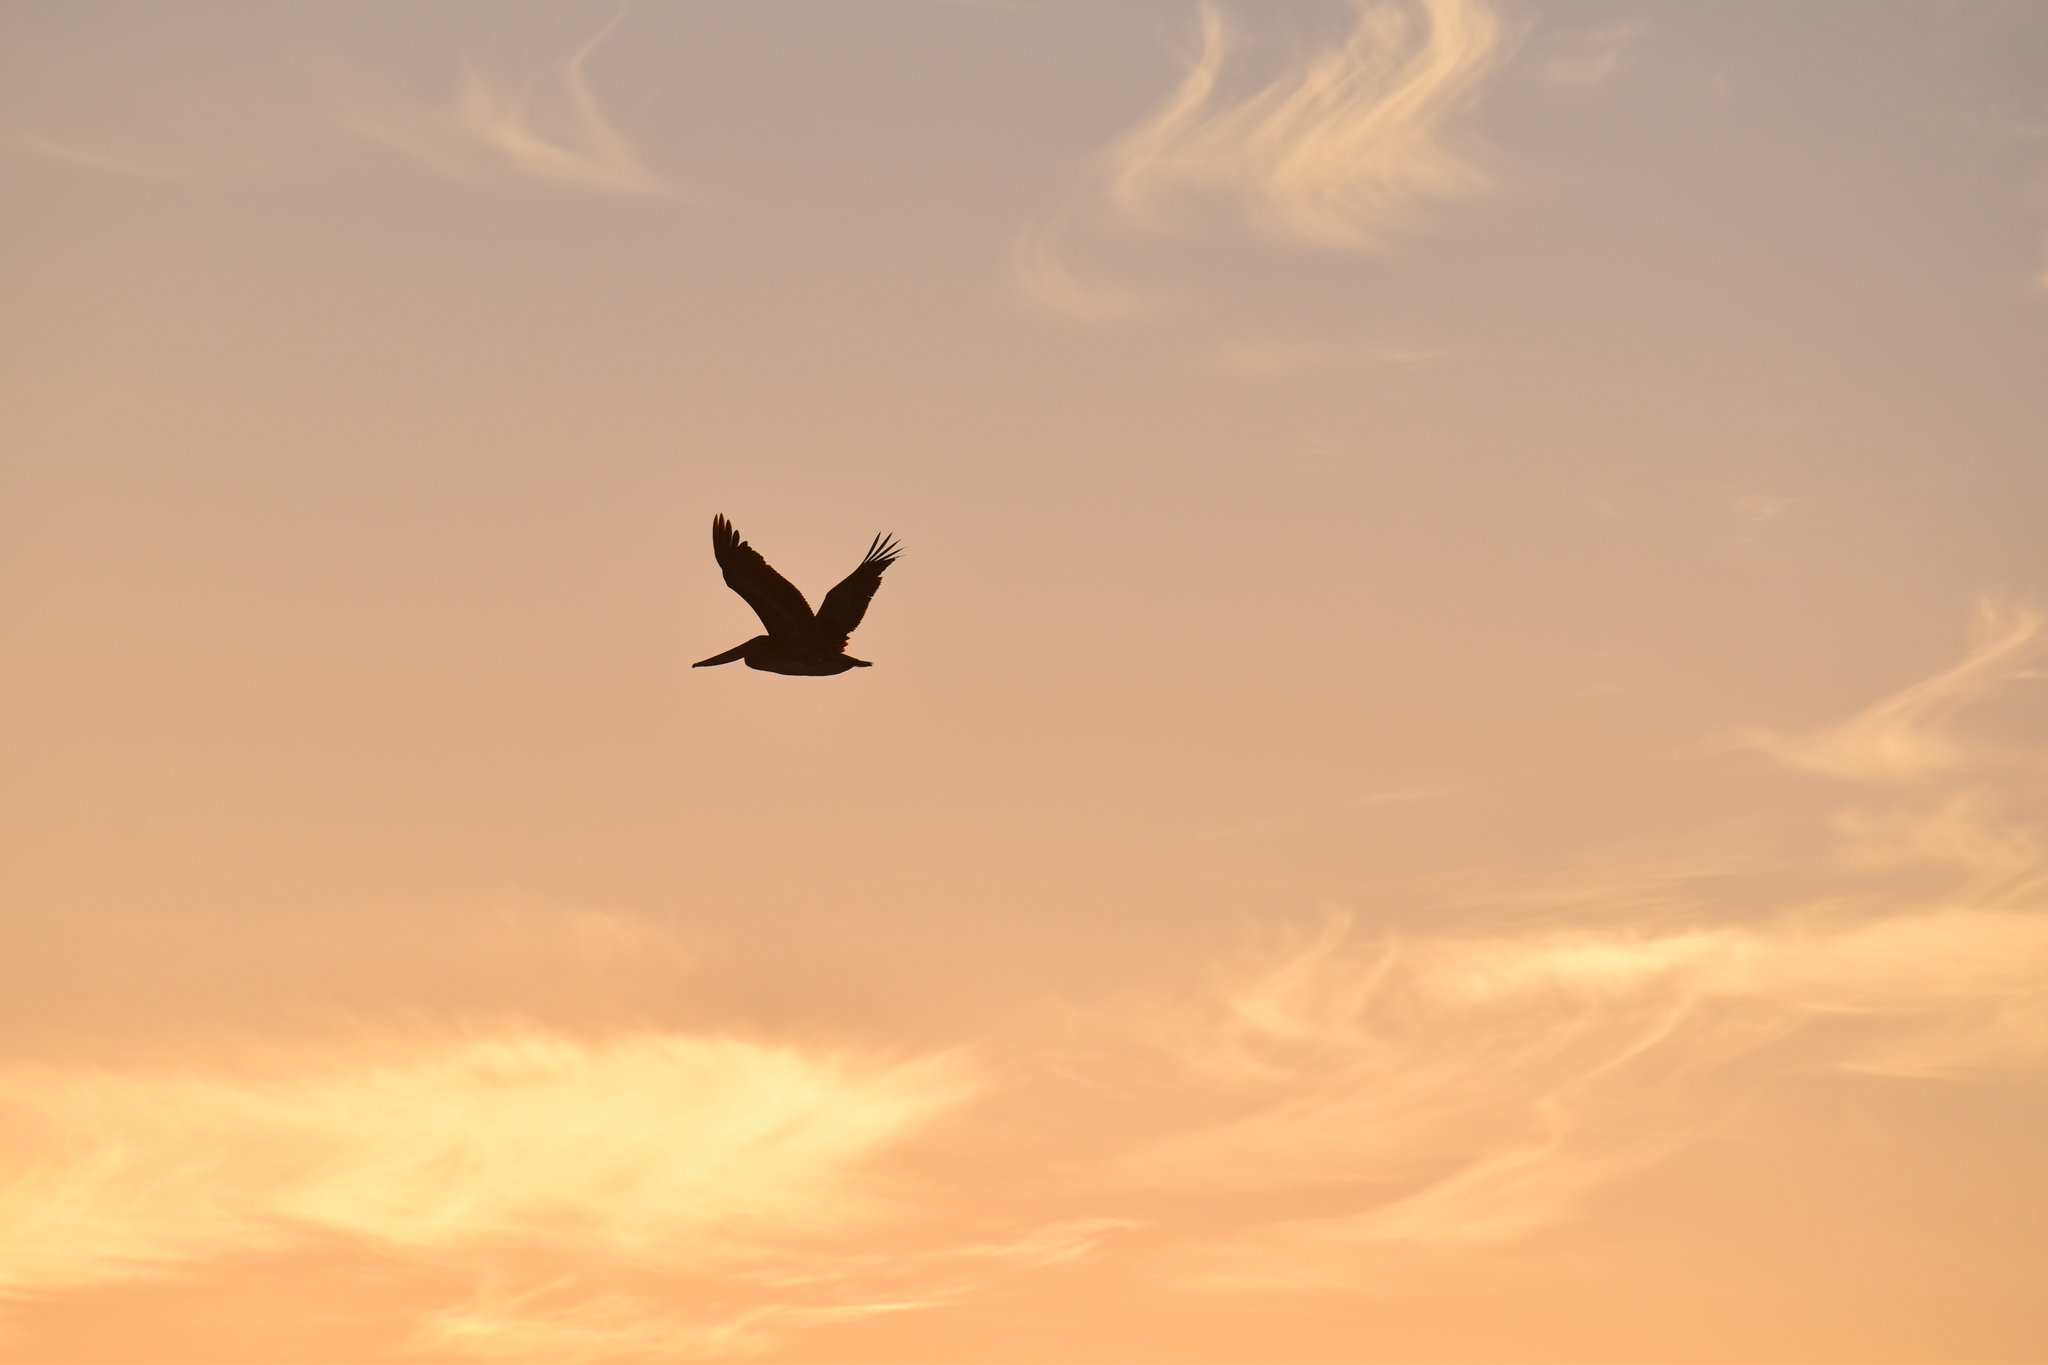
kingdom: Animalia
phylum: Chordata
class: Aves
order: Pelecaniformes
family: Pelecanidae
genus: Pelecanus
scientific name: Pelecanus occidentalis
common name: Brown pelican
